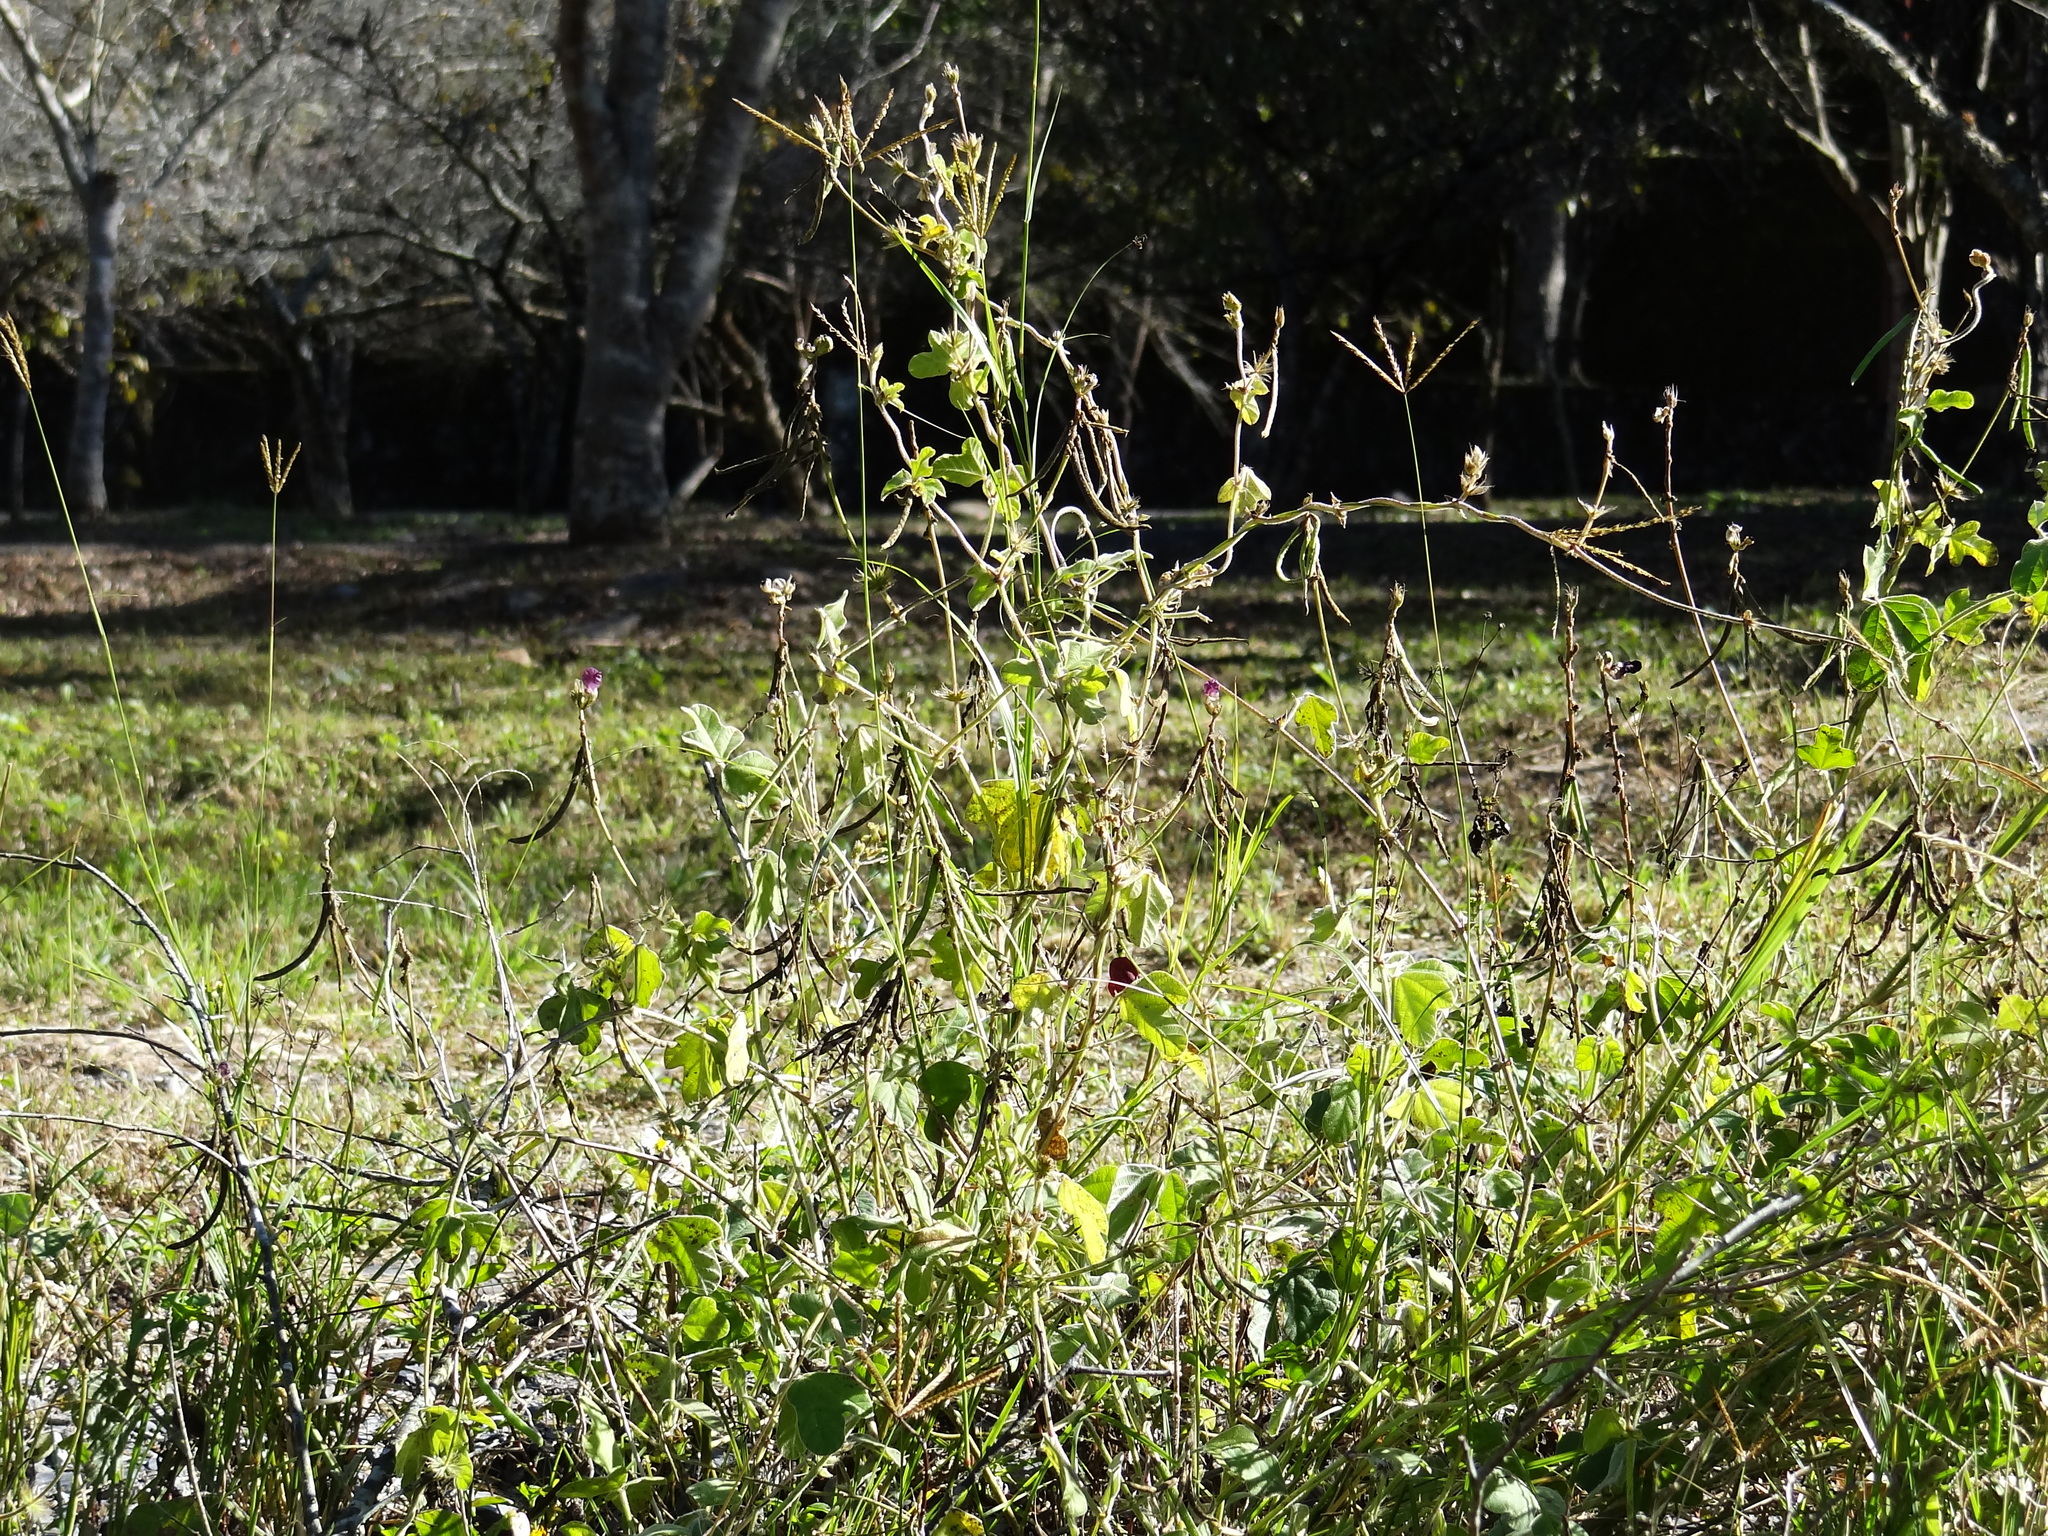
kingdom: Plantae
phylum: Tracheophyta
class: Magnoliopsida
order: Fabales
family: Fabaceae
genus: Macroptilium
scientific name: Macroptilium bracteatum
